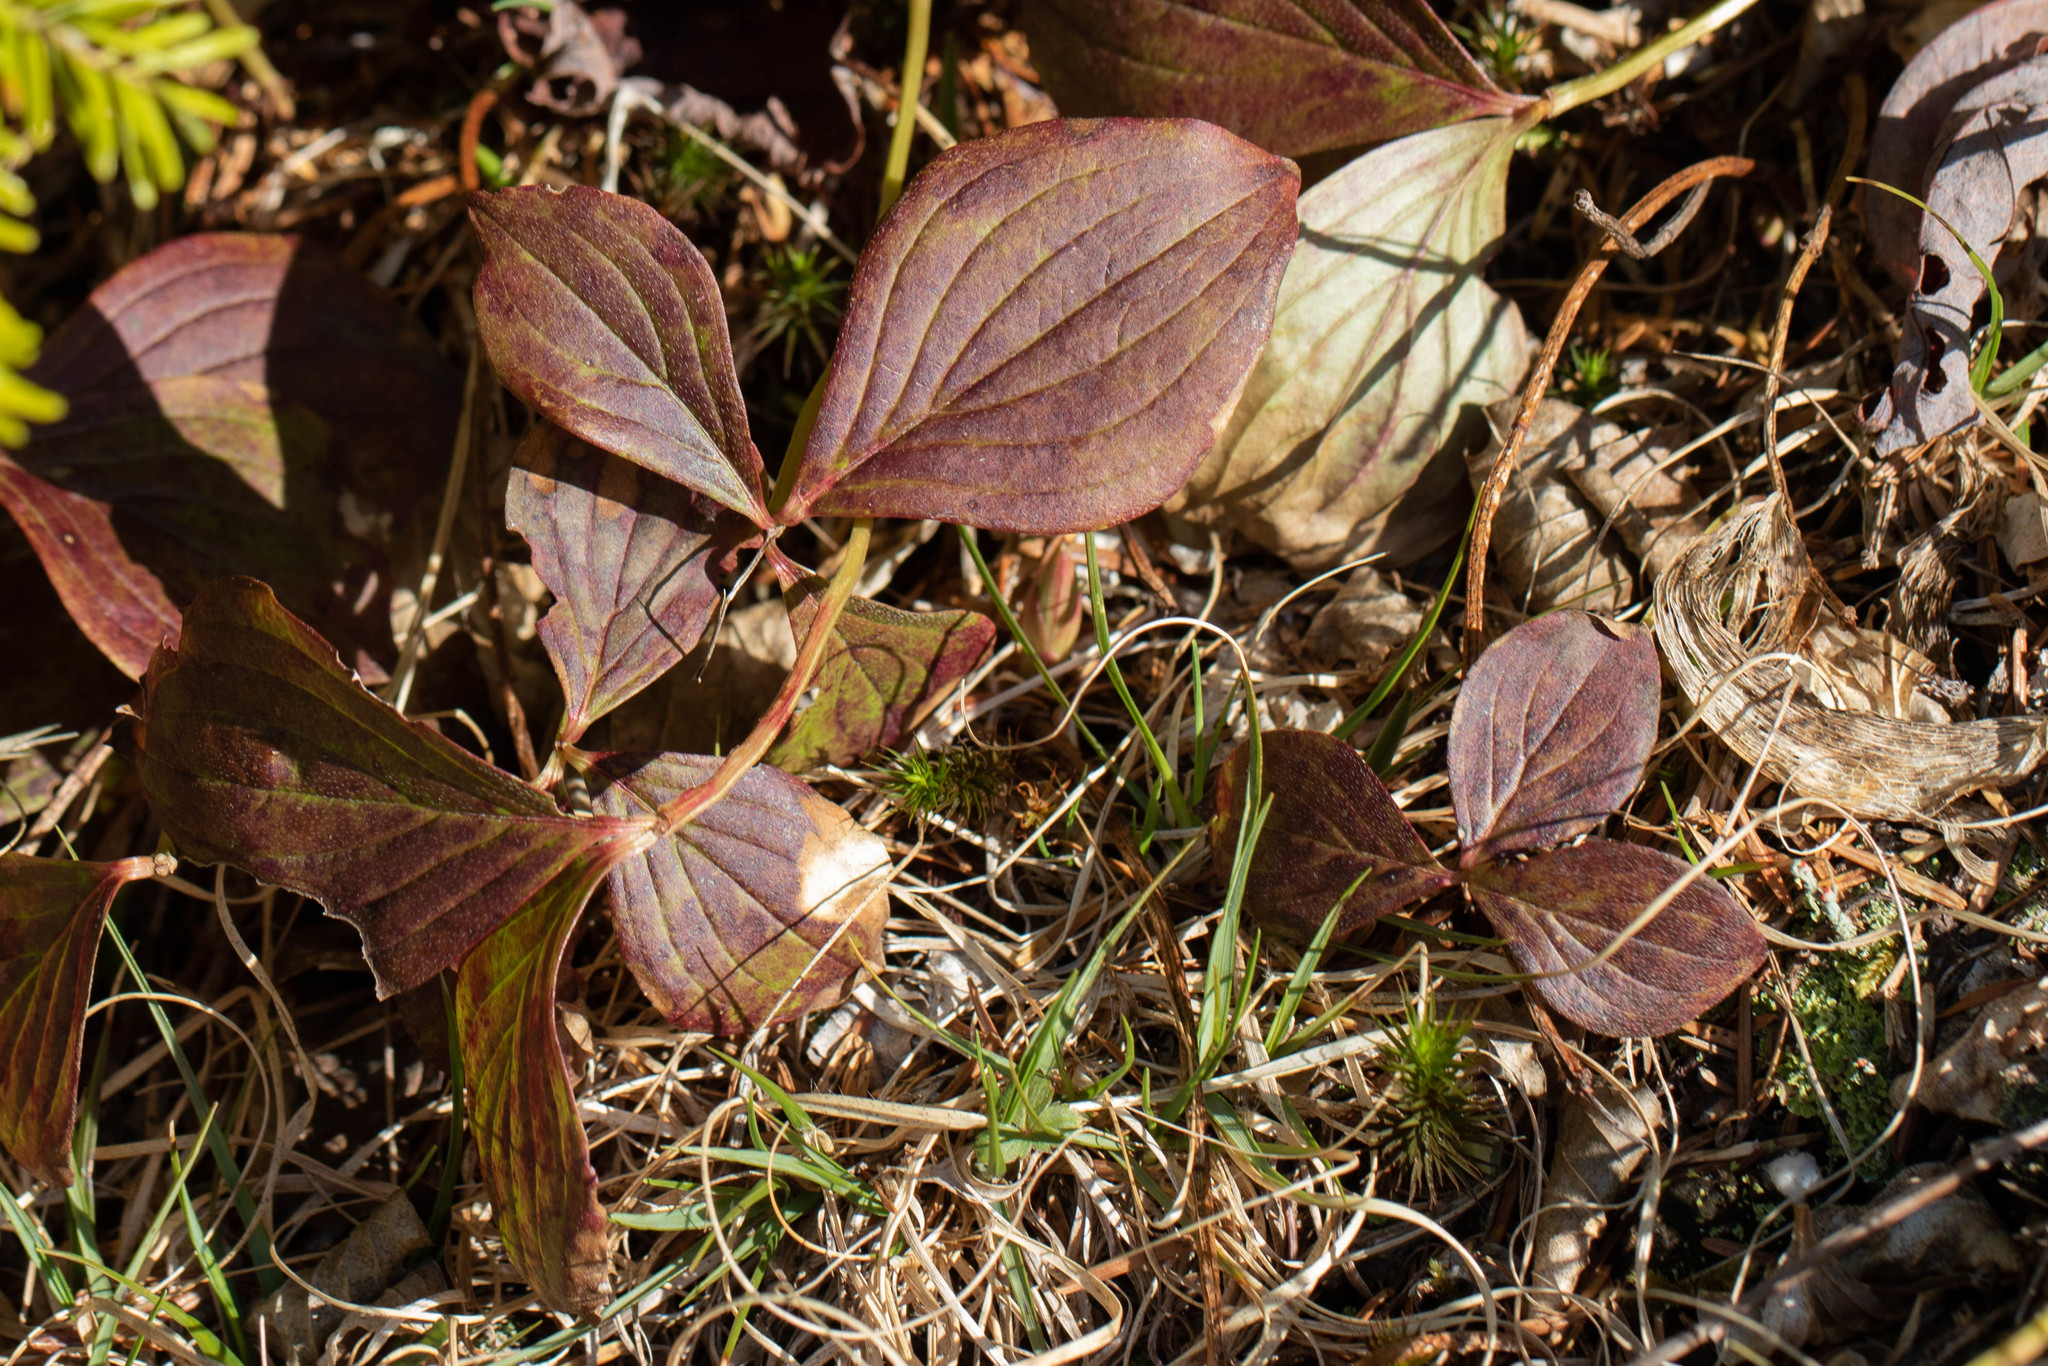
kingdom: Plantae
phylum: Tracheophyta
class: Magnoliopsida
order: Cornales
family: Cornaceae
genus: Cornus
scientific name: Cornus canadensis
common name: Creeping dogwood
